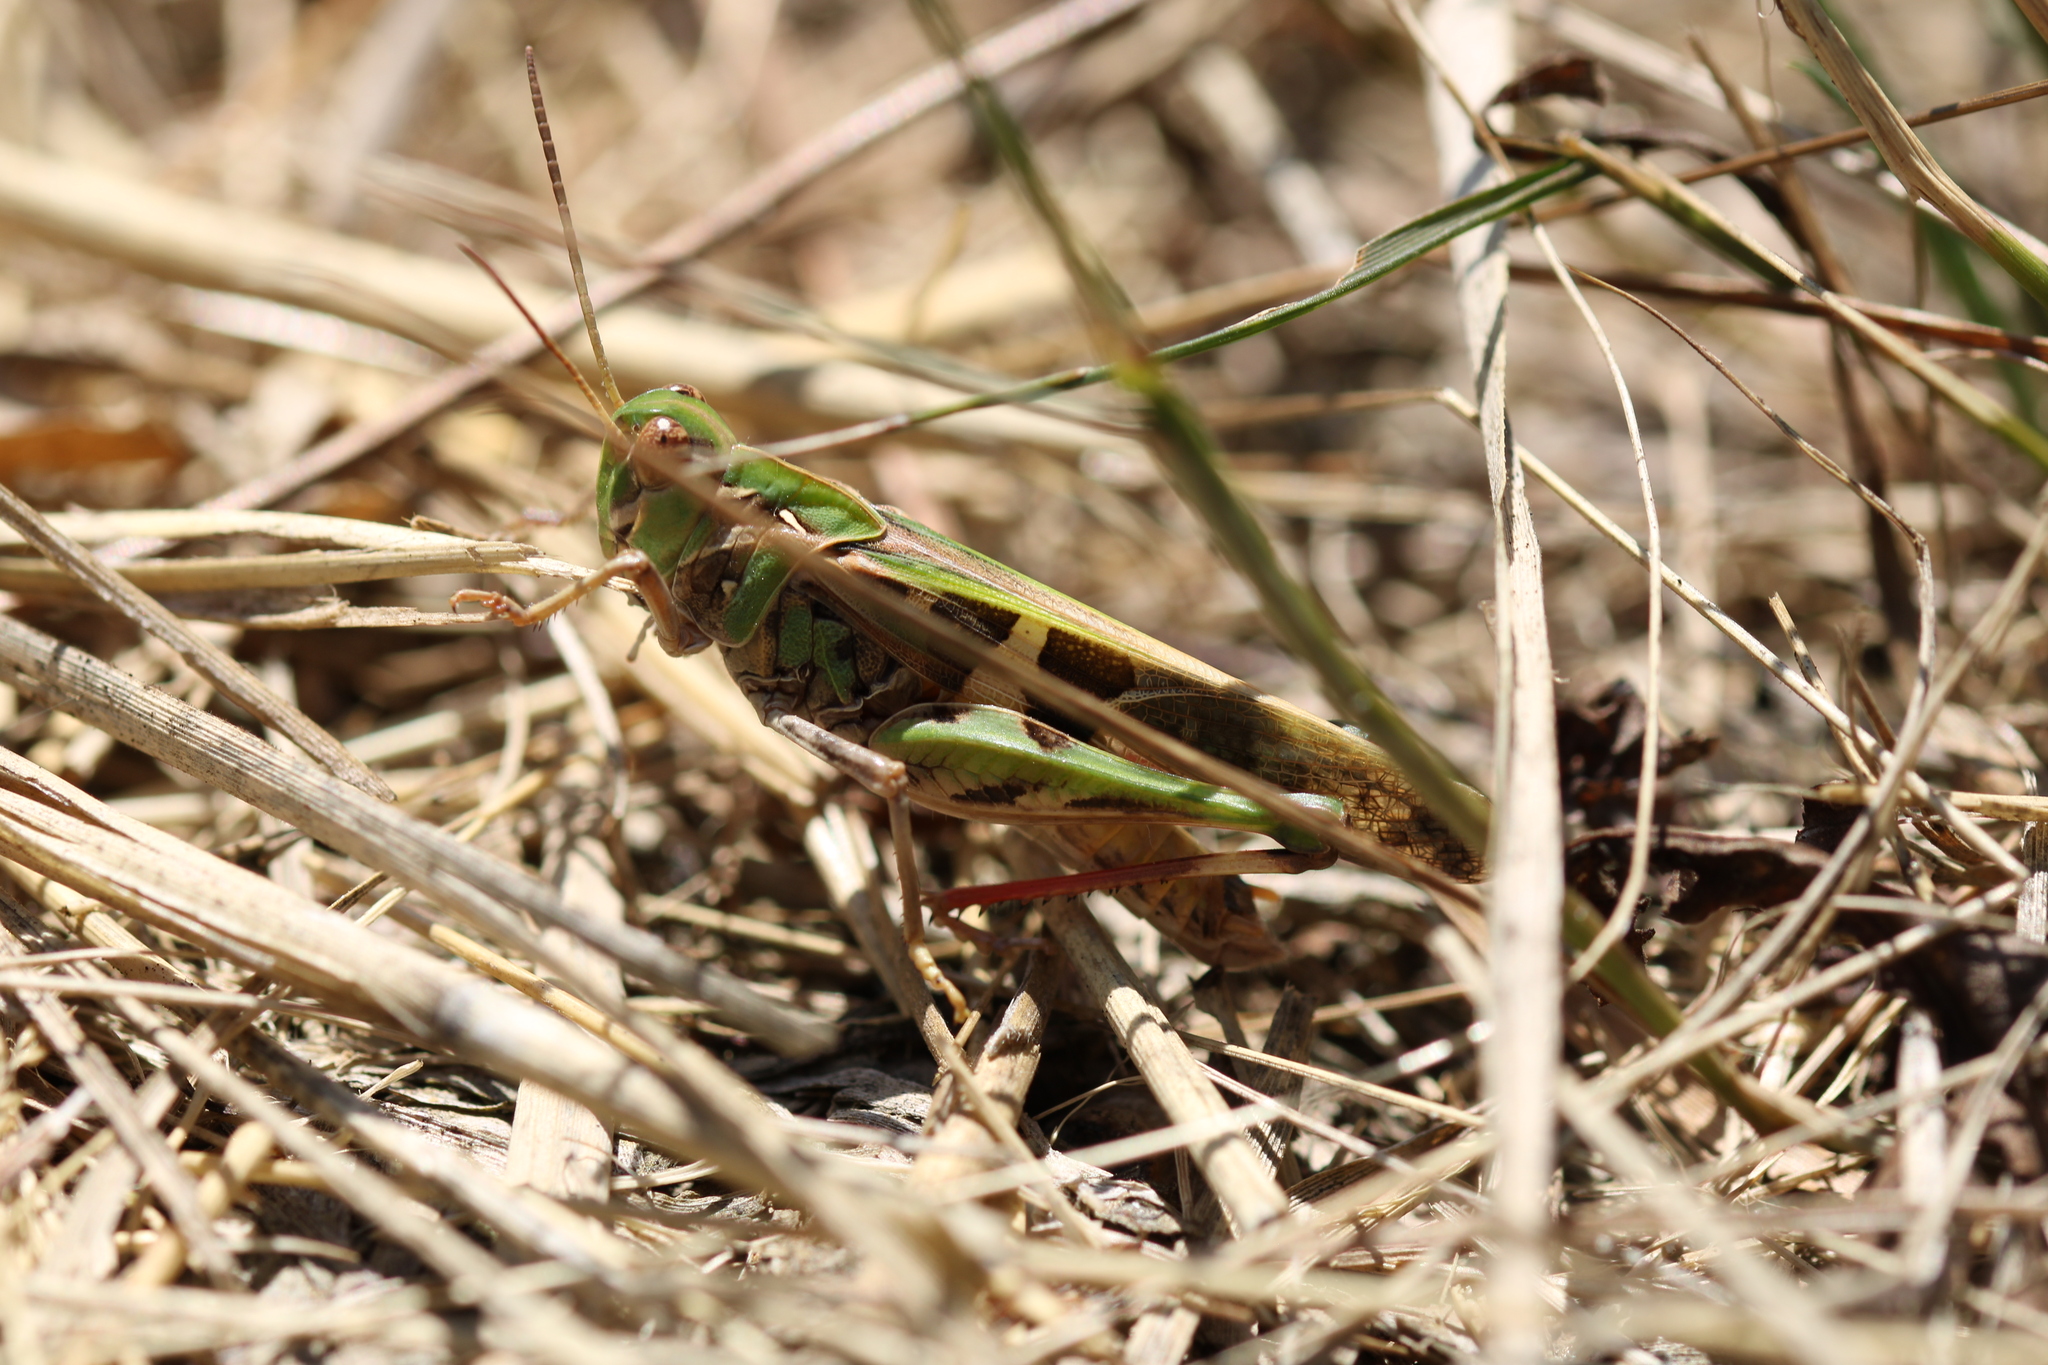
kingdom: Animalia
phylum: Arthropoda
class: Insecta
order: Orthoptera
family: Acrididae
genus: Oedaleus
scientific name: Oedaleus decorus
